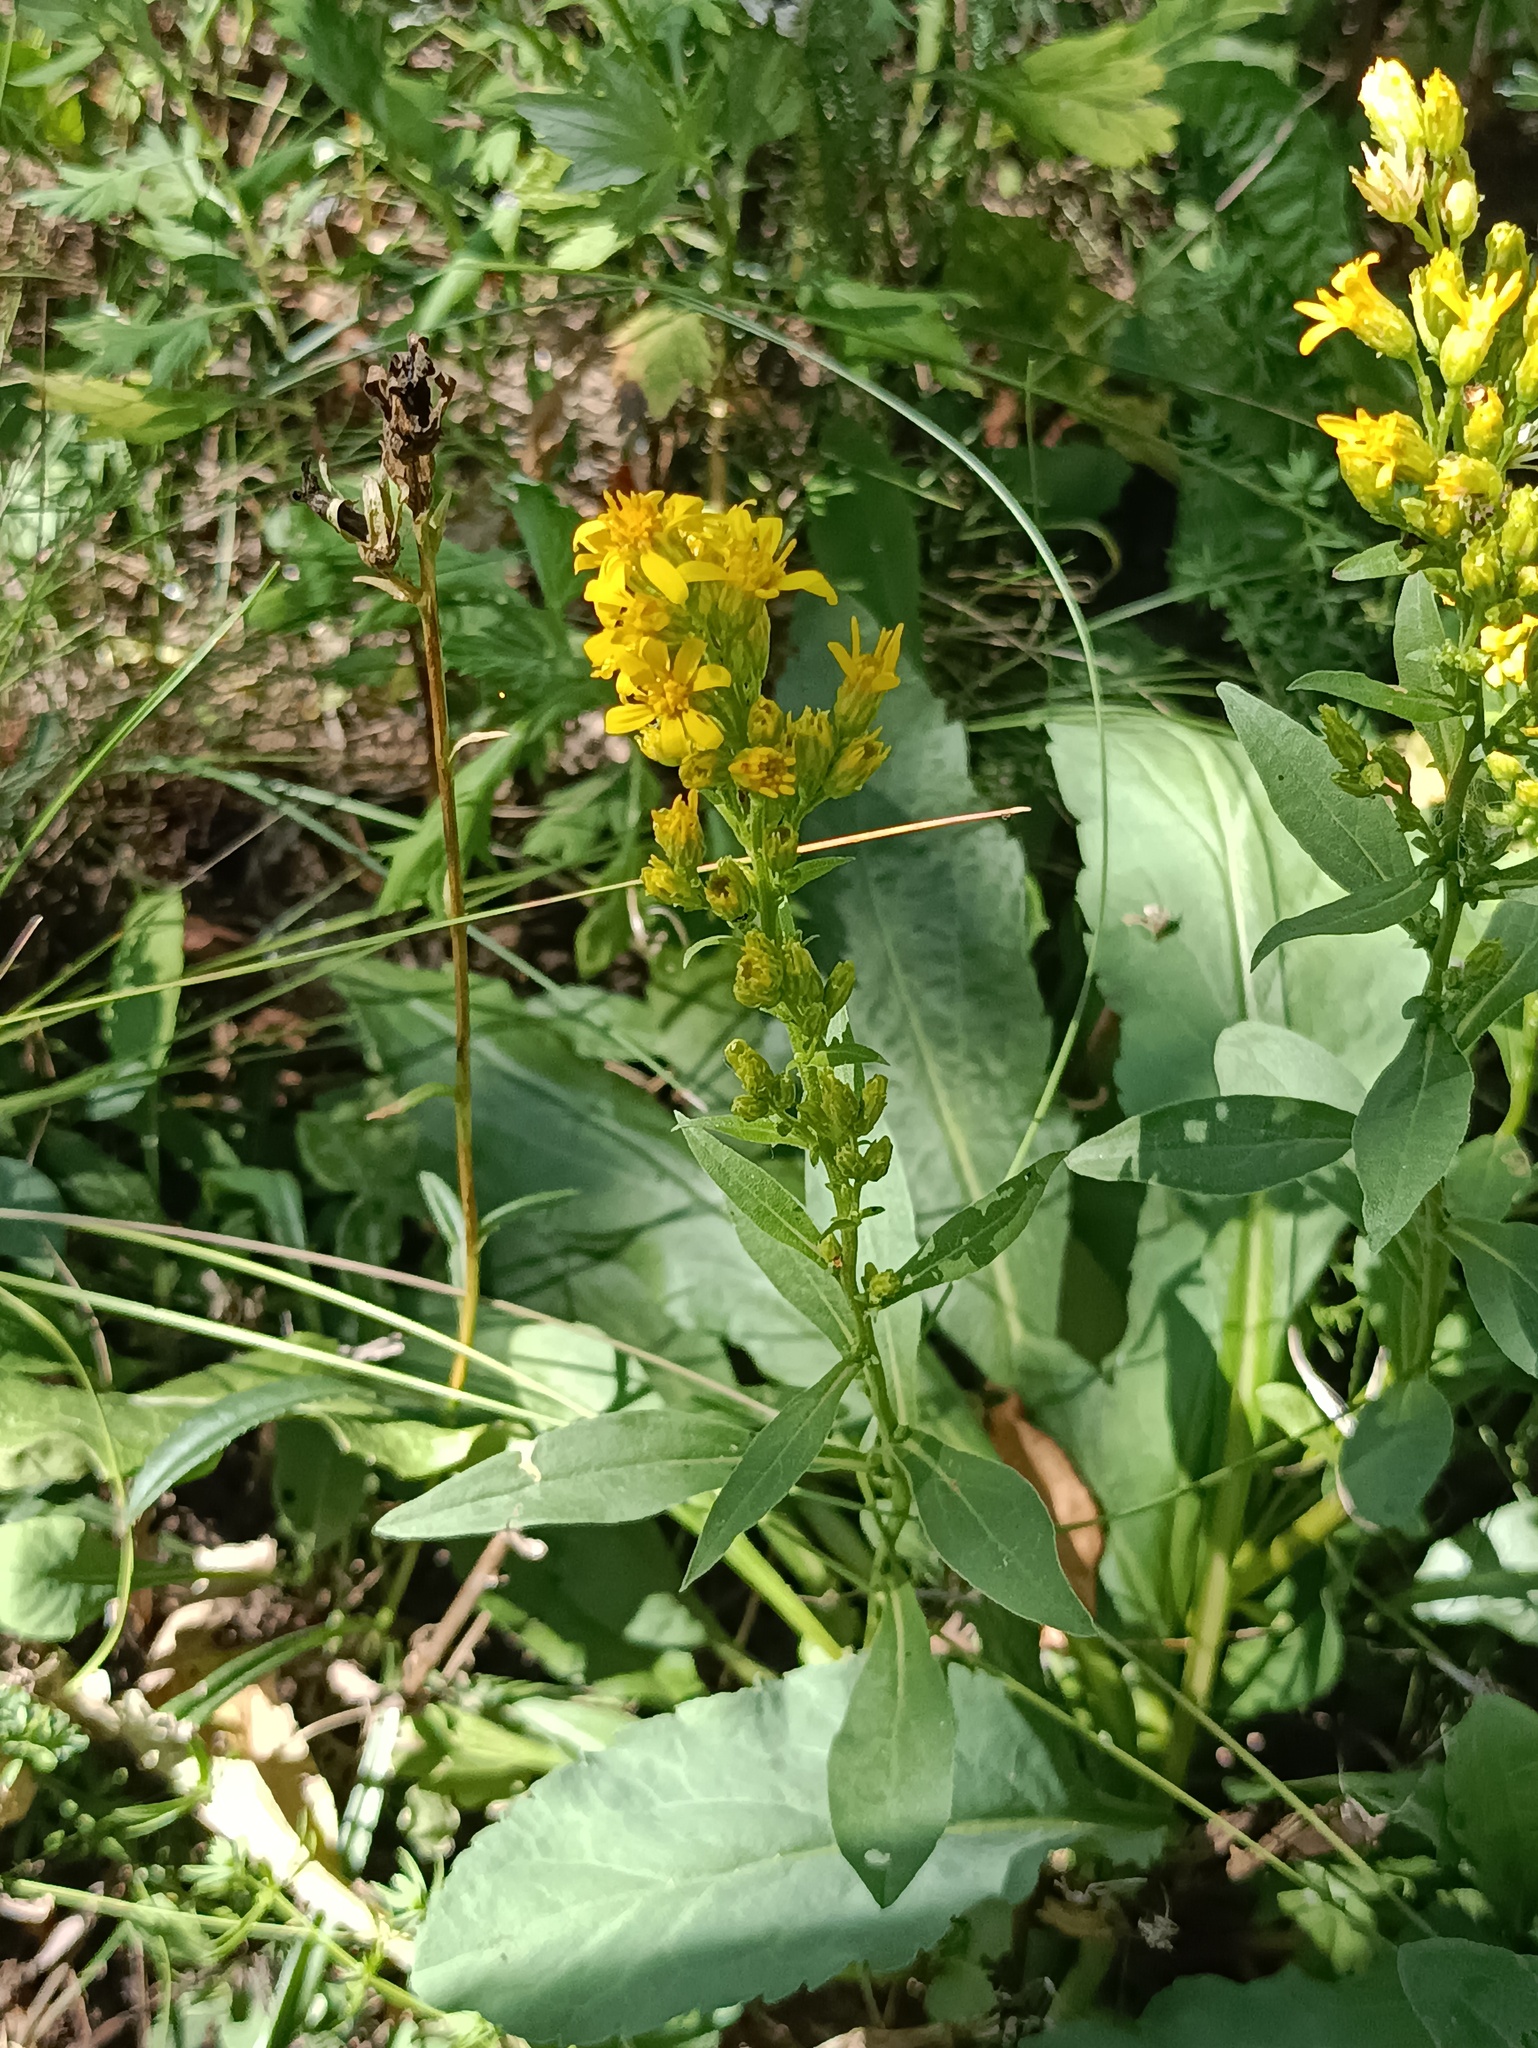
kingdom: Plantae
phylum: Tracheophyta
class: Magnoliopsida
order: Asterales
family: Asteraceae
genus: Solidago
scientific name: Solidago virgaurea
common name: Goldenrod
